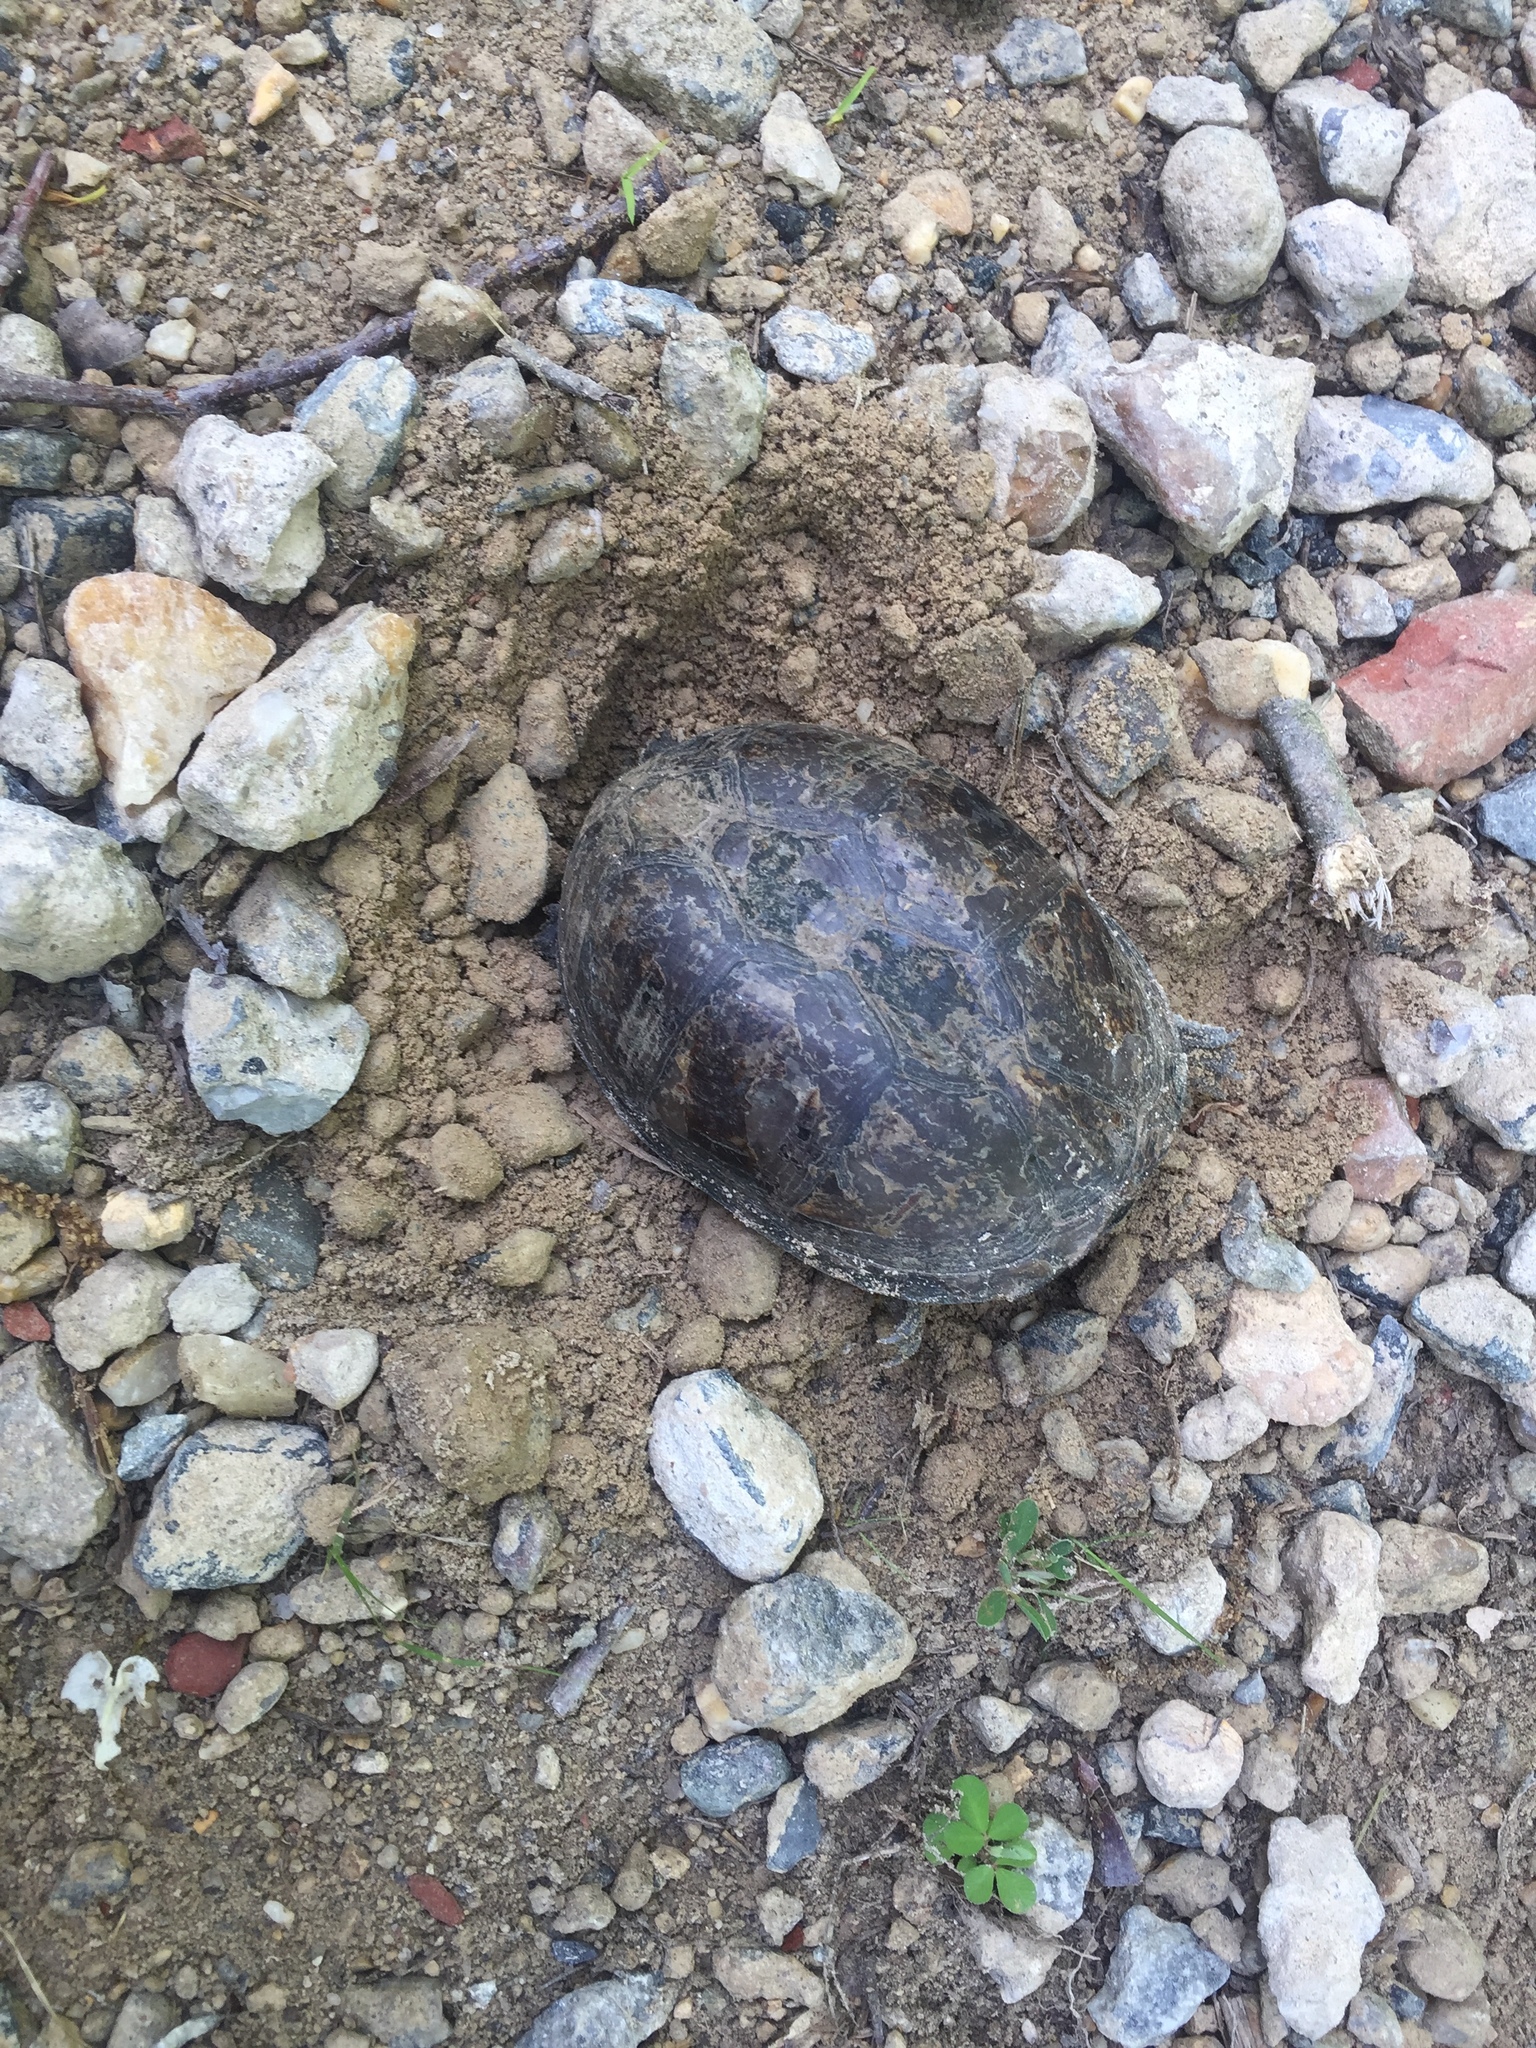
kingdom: Animalia
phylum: Chordata
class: Testudines
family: Kinosternidae
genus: Sternotherus
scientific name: Sternotherus odoratus
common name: Common musk turtle
